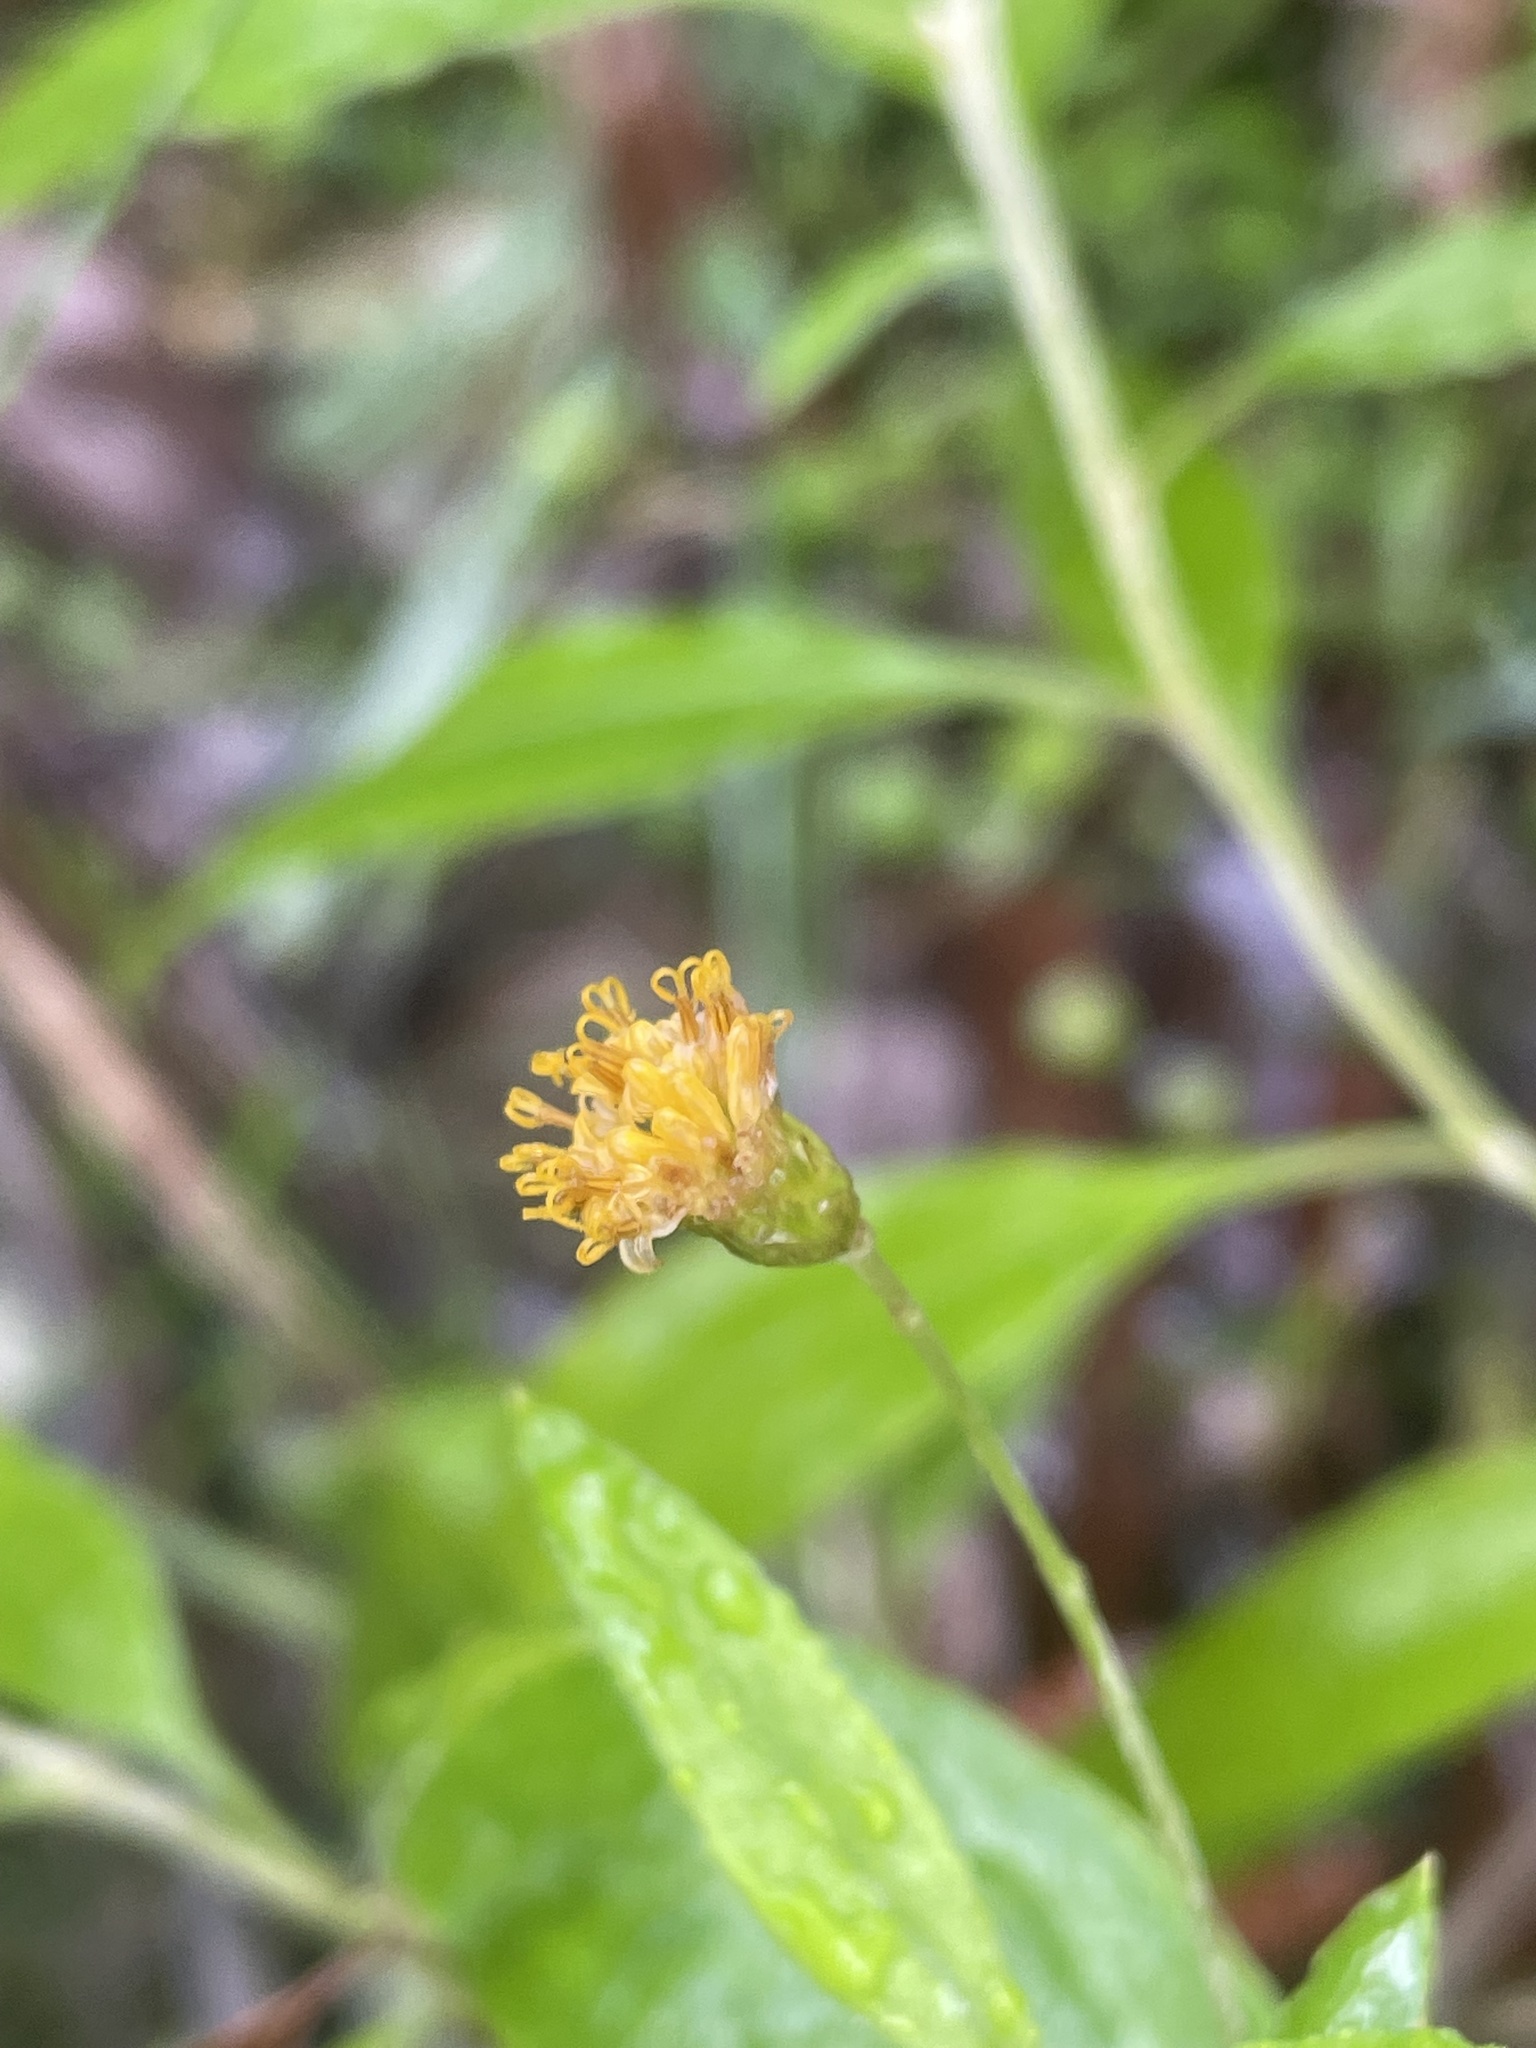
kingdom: Plantae
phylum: Tracheophyta
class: Magnoliopsida
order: Asterales
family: Asteraceae
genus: Acomis
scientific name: Acomis acoma
